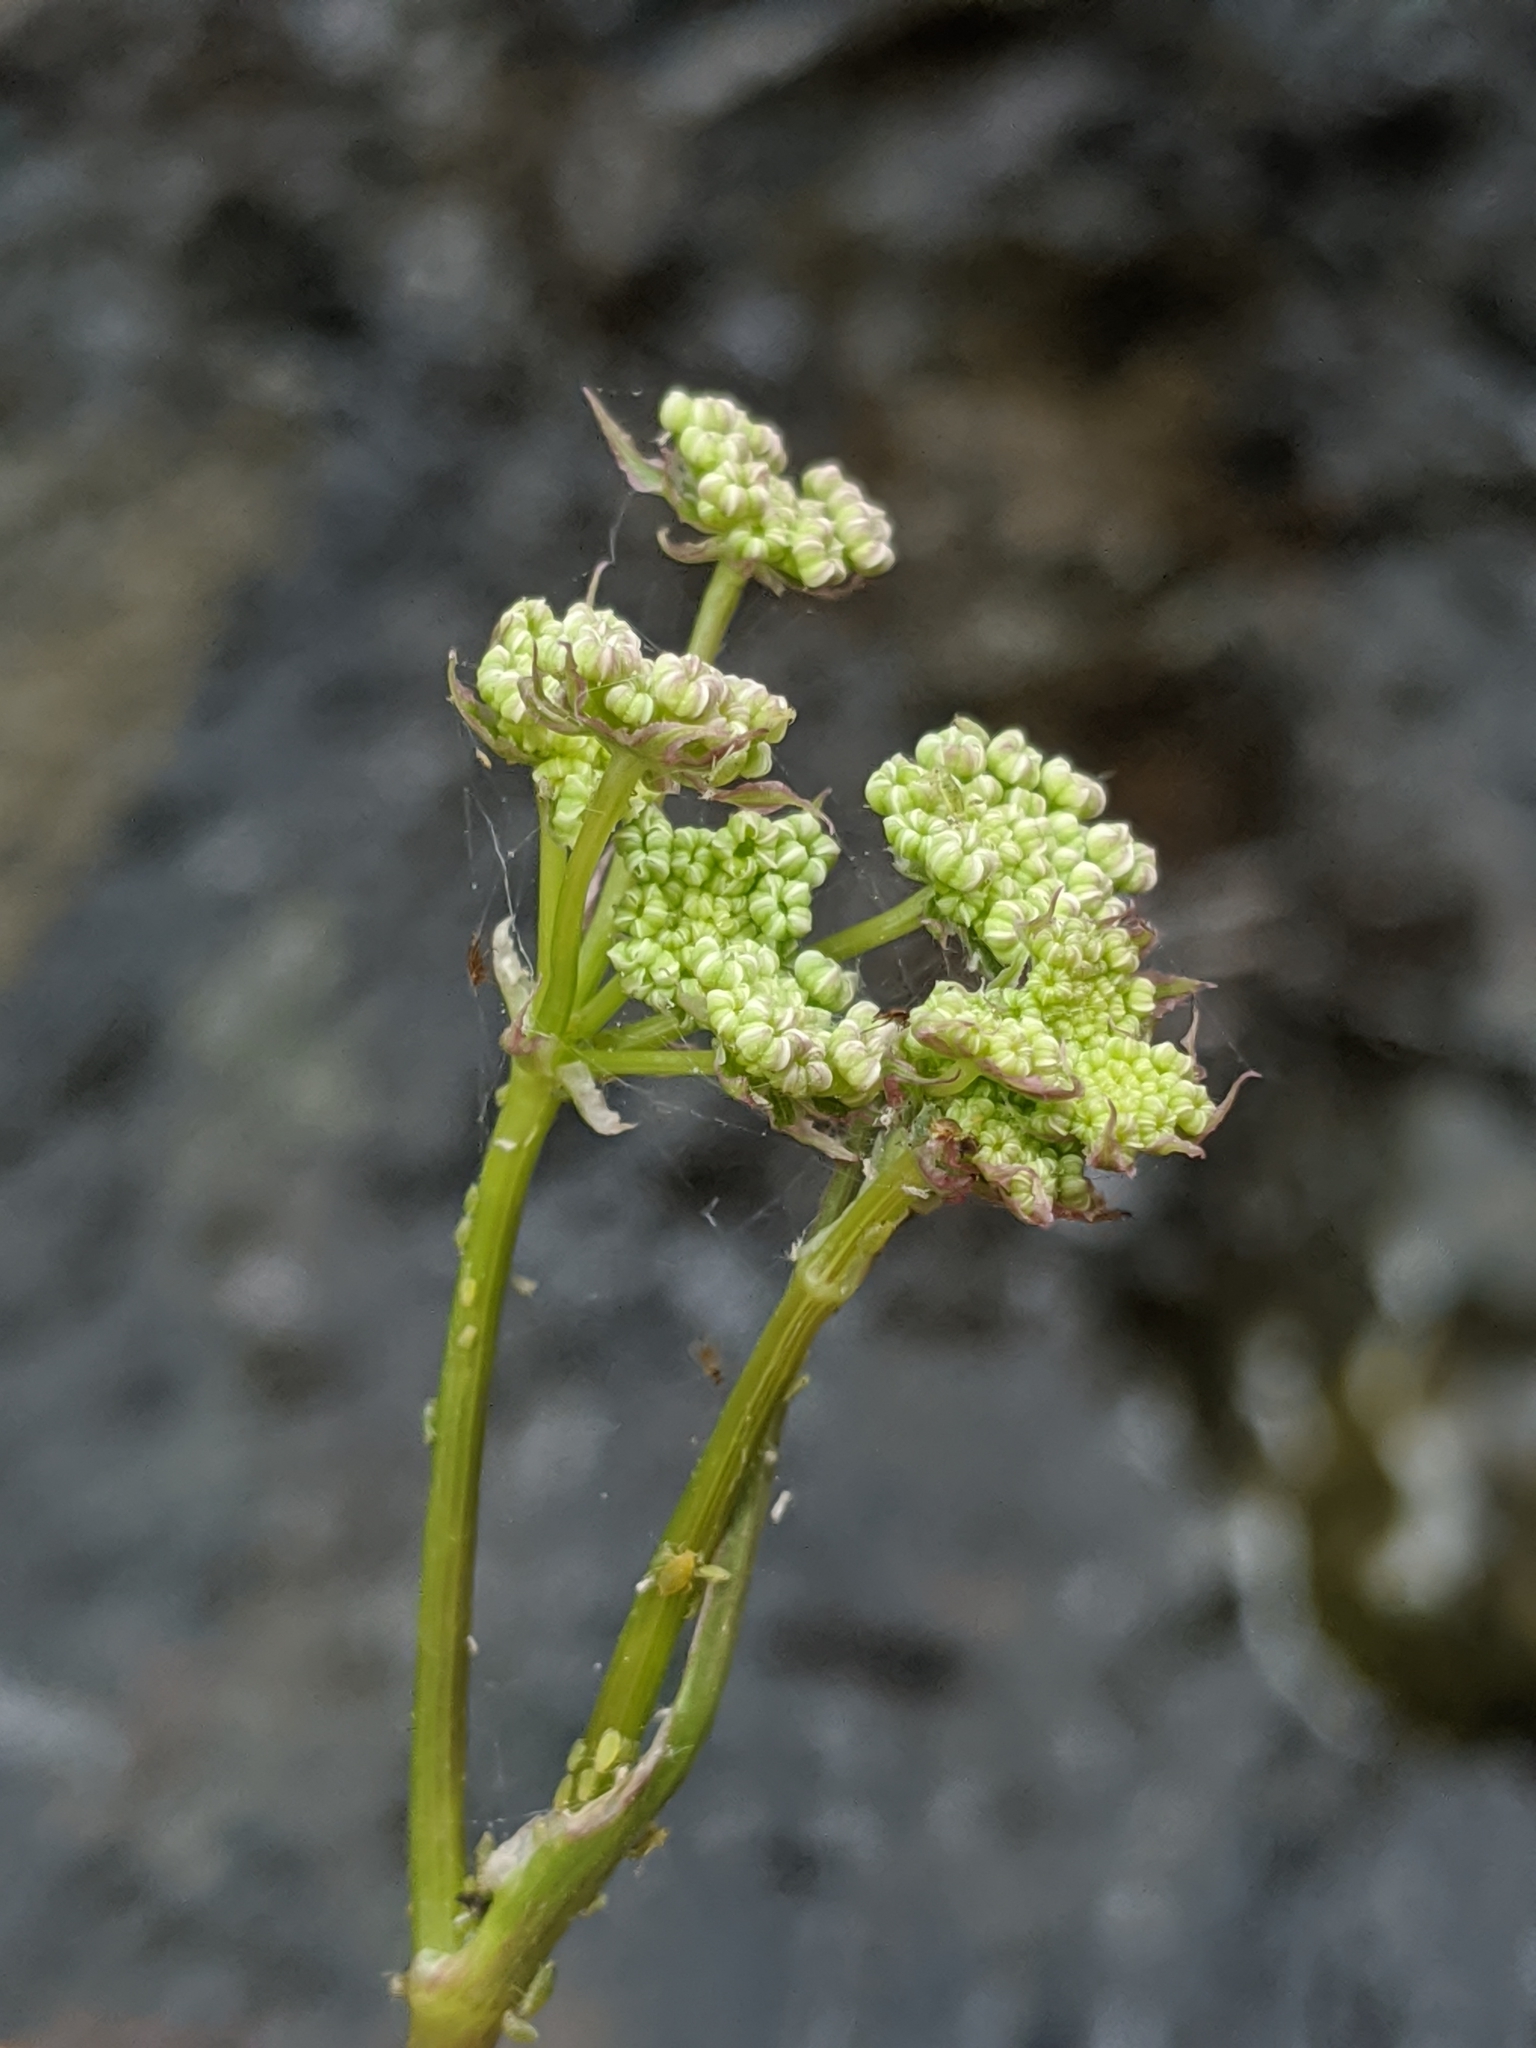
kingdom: Plantae
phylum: Tracheophyta
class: Magnoliopsida
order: Apiales
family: Apiaceae
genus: Perideridia
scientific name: Perideridia californica
